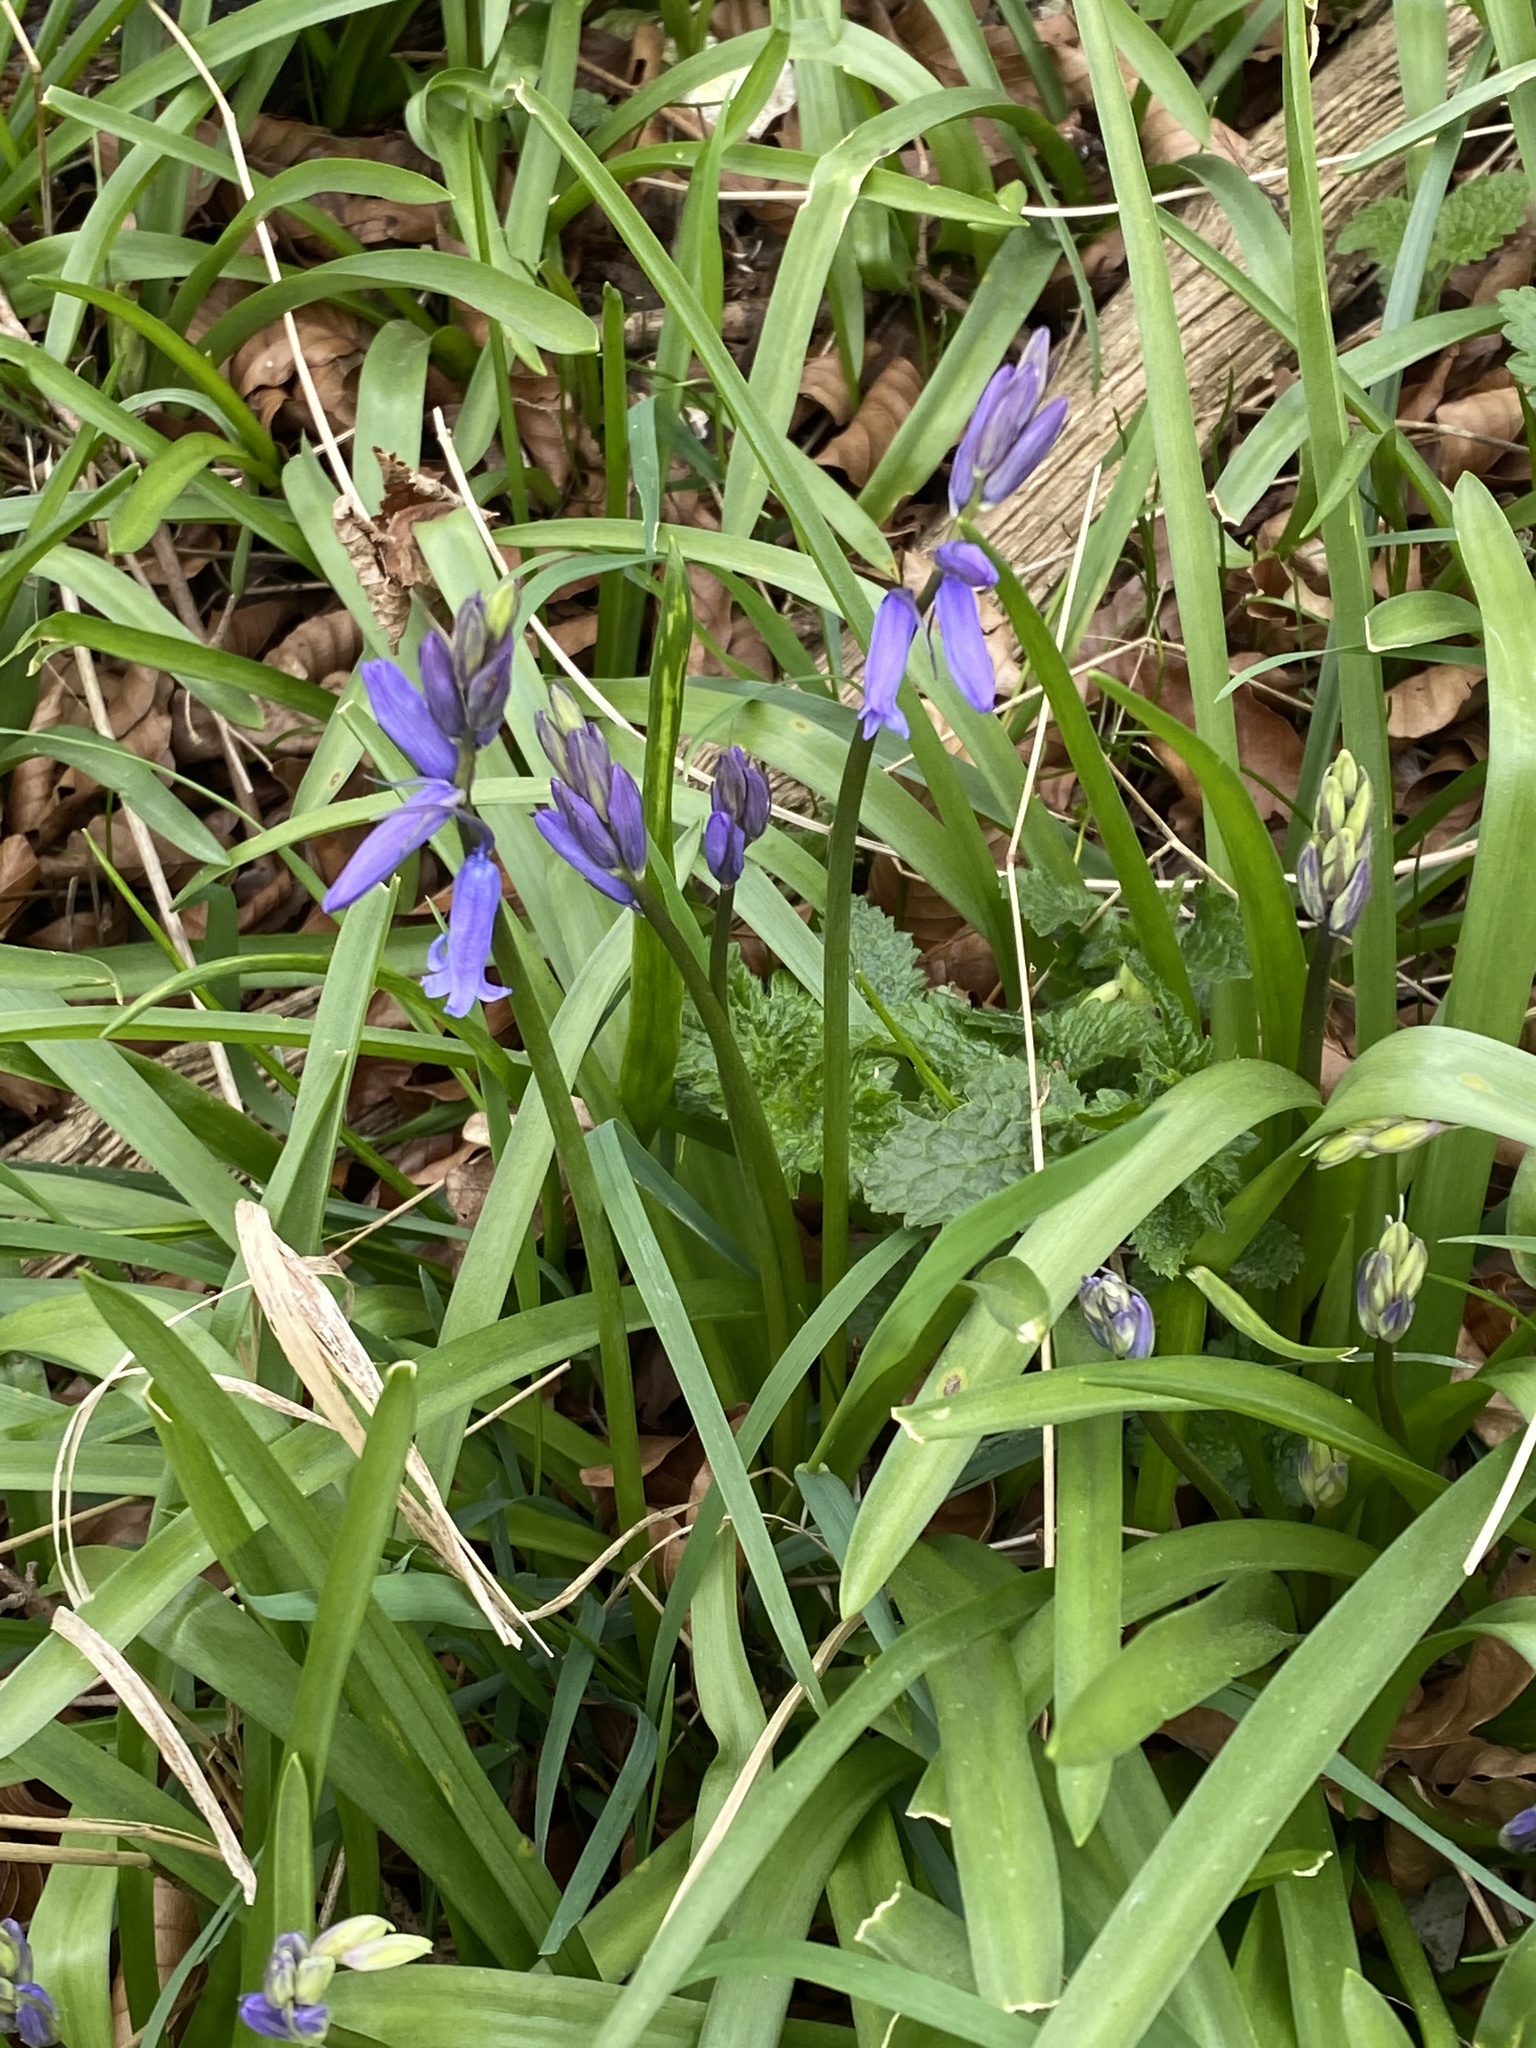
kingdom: Plantae
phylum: Tracheophyta
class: Liliopsida
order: Asparagales
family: Asparagaceae
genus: Hyacinthoides
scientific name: Hyacinthoides non-scripta
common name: Bluebell
